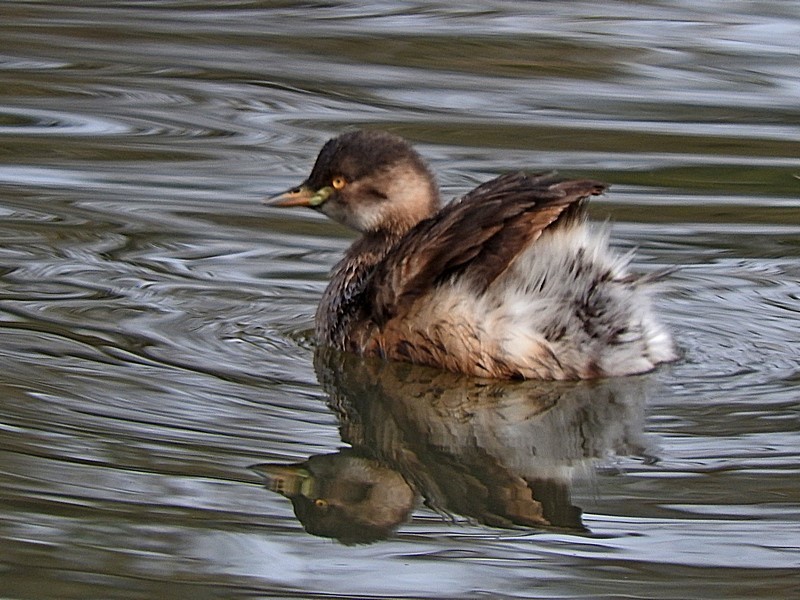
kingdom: Animalia
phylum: Chordata
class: Aves
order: Podicipediformes
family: Podicipedidae
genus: Tachybaptus
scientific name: Tachybaptus novaehollandiae
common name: Australasian grebe
